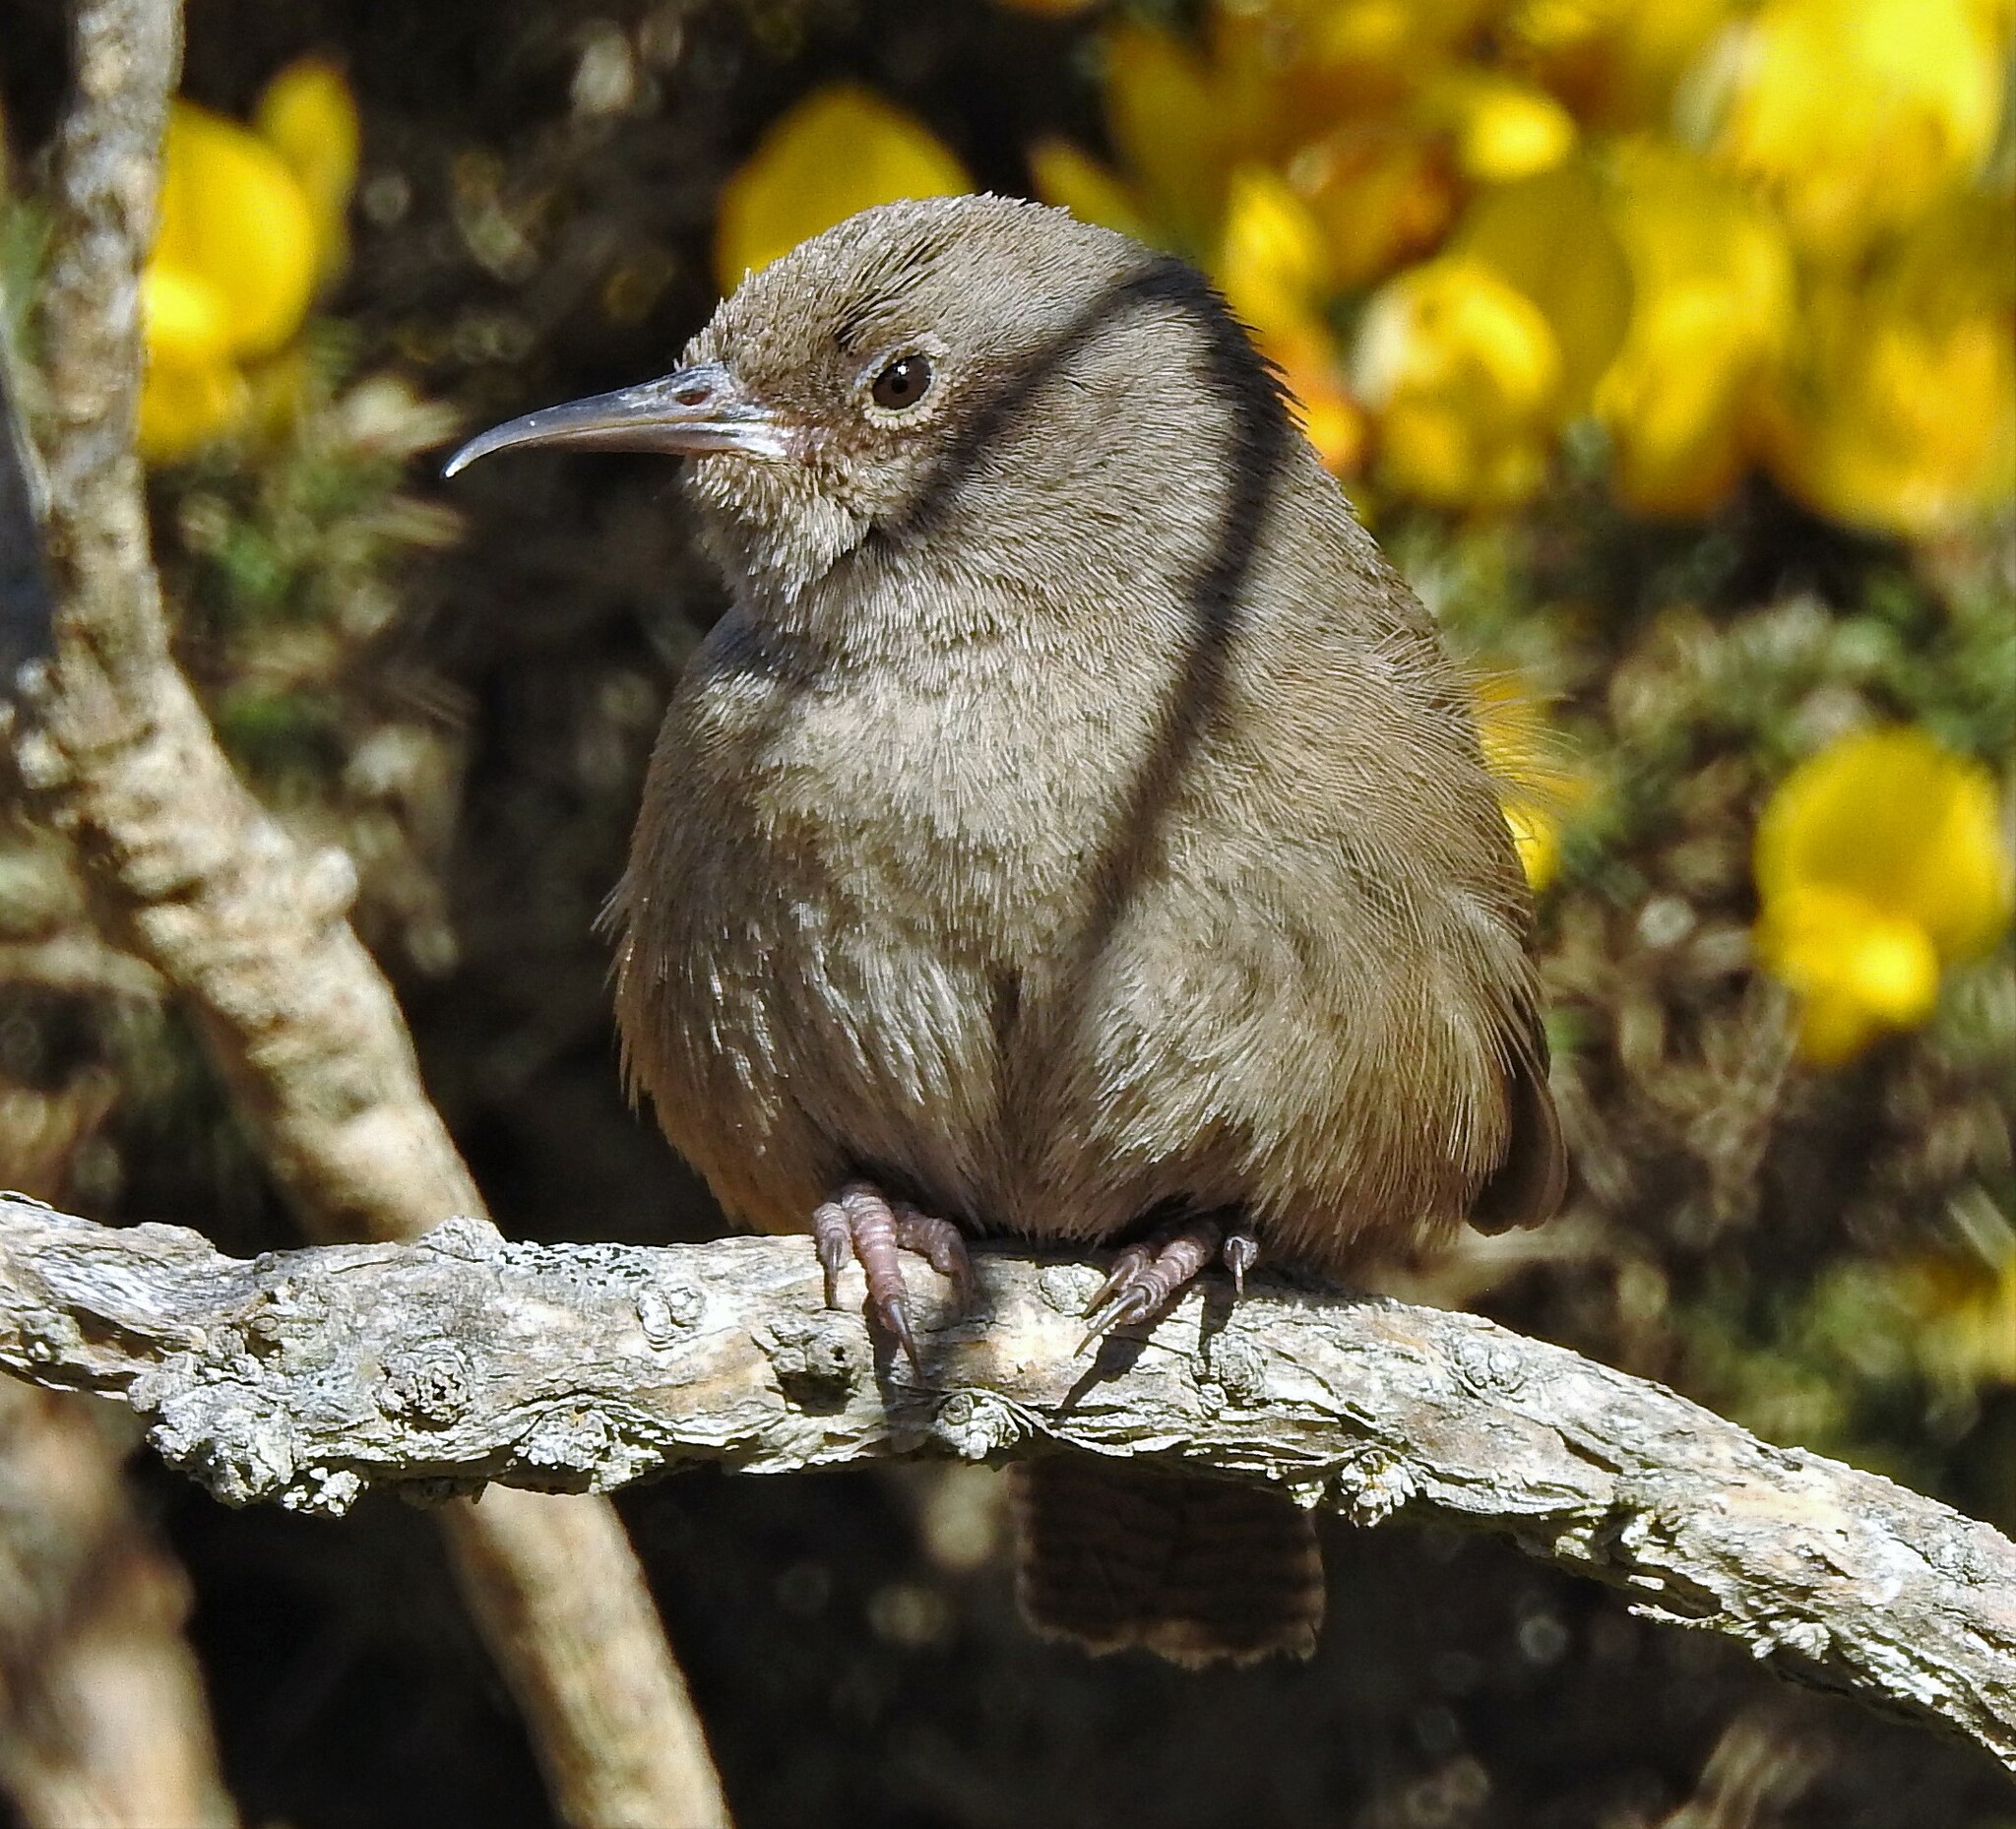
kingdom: Animalia
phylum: Chordata
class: Aves
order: Passeriformes
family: Troglodytidae
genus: Troglodytes
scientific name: Troglodytes cobbi
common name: Cobb's wren
